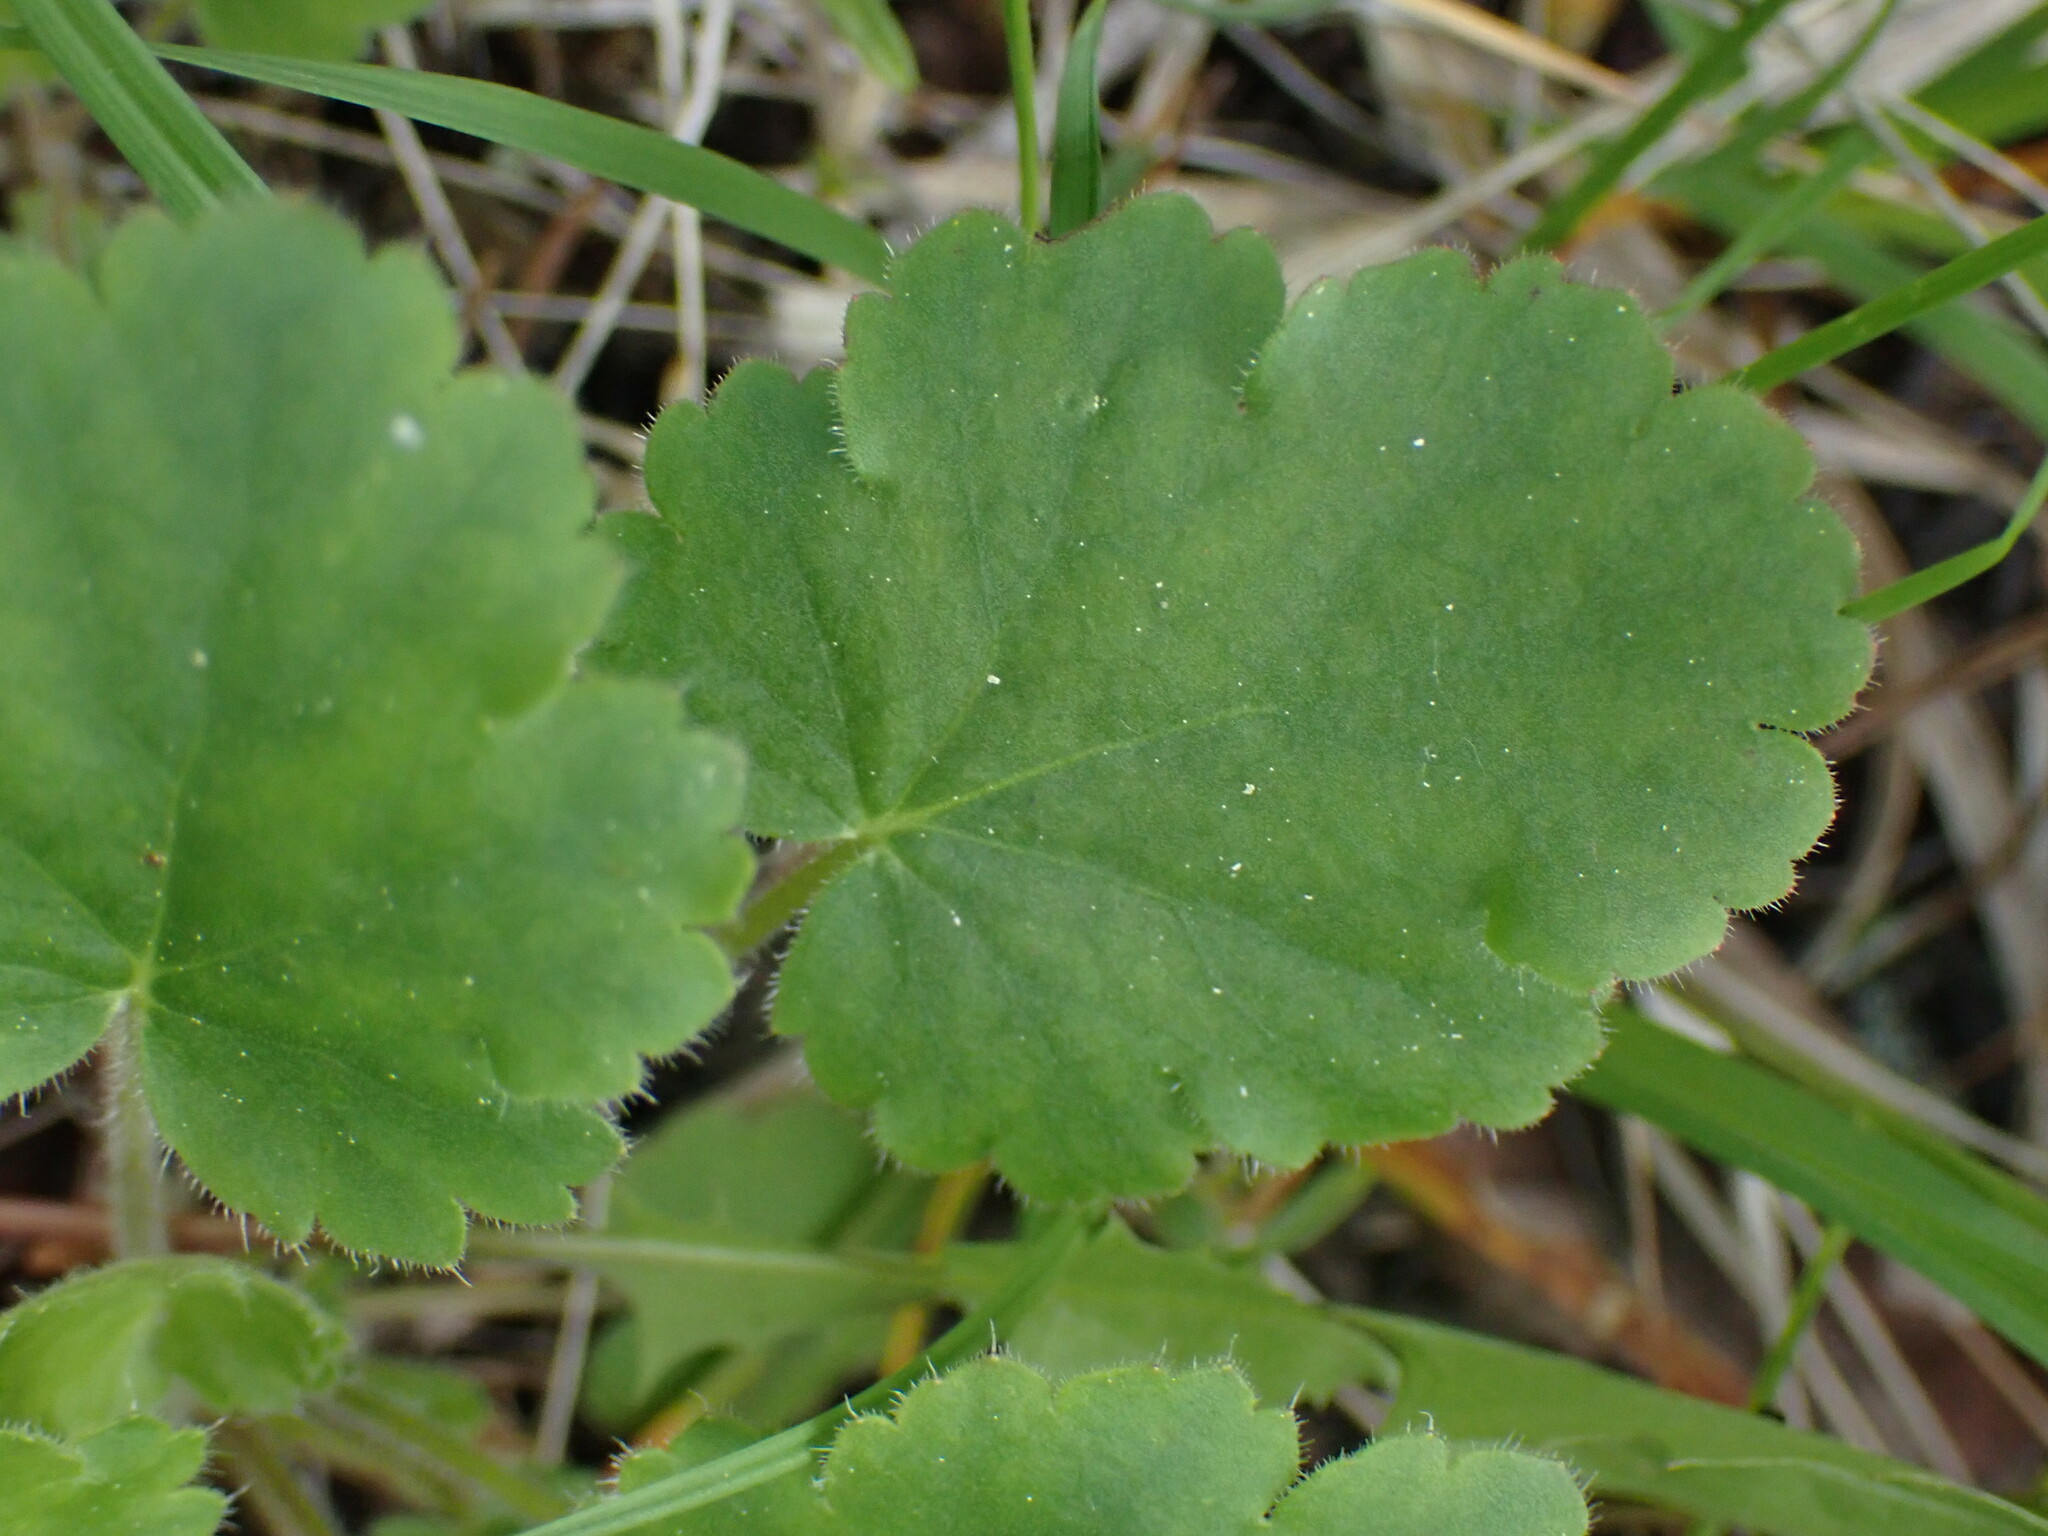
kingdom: Plantae
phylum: Tracheophyta
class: Magnoliopsida
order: Saxifragales
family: Saxifragaceae
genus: Heuchera
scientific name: Heuchera cylindrica
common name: Mat alumroot
